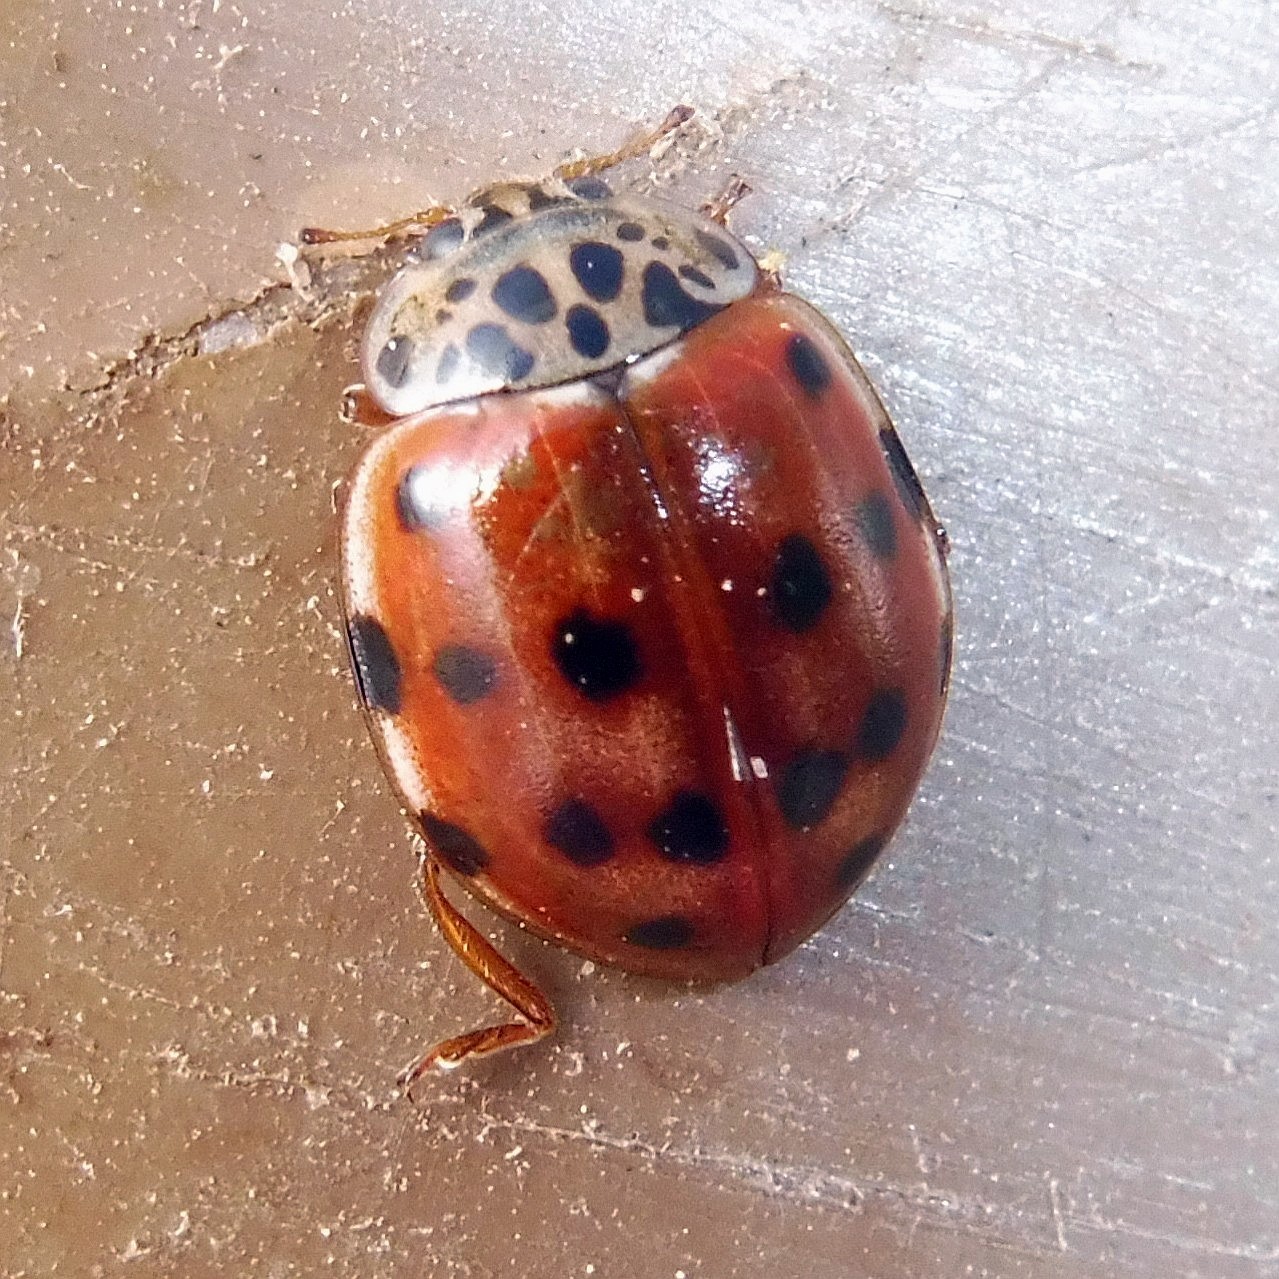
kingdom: Animalia
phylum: Arthropoda
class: Insecta
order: Coleoptera
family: Coccinellidae
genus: Harmonia
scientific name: Harmonia quadripunctata
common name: Cream-streaked ladybird
